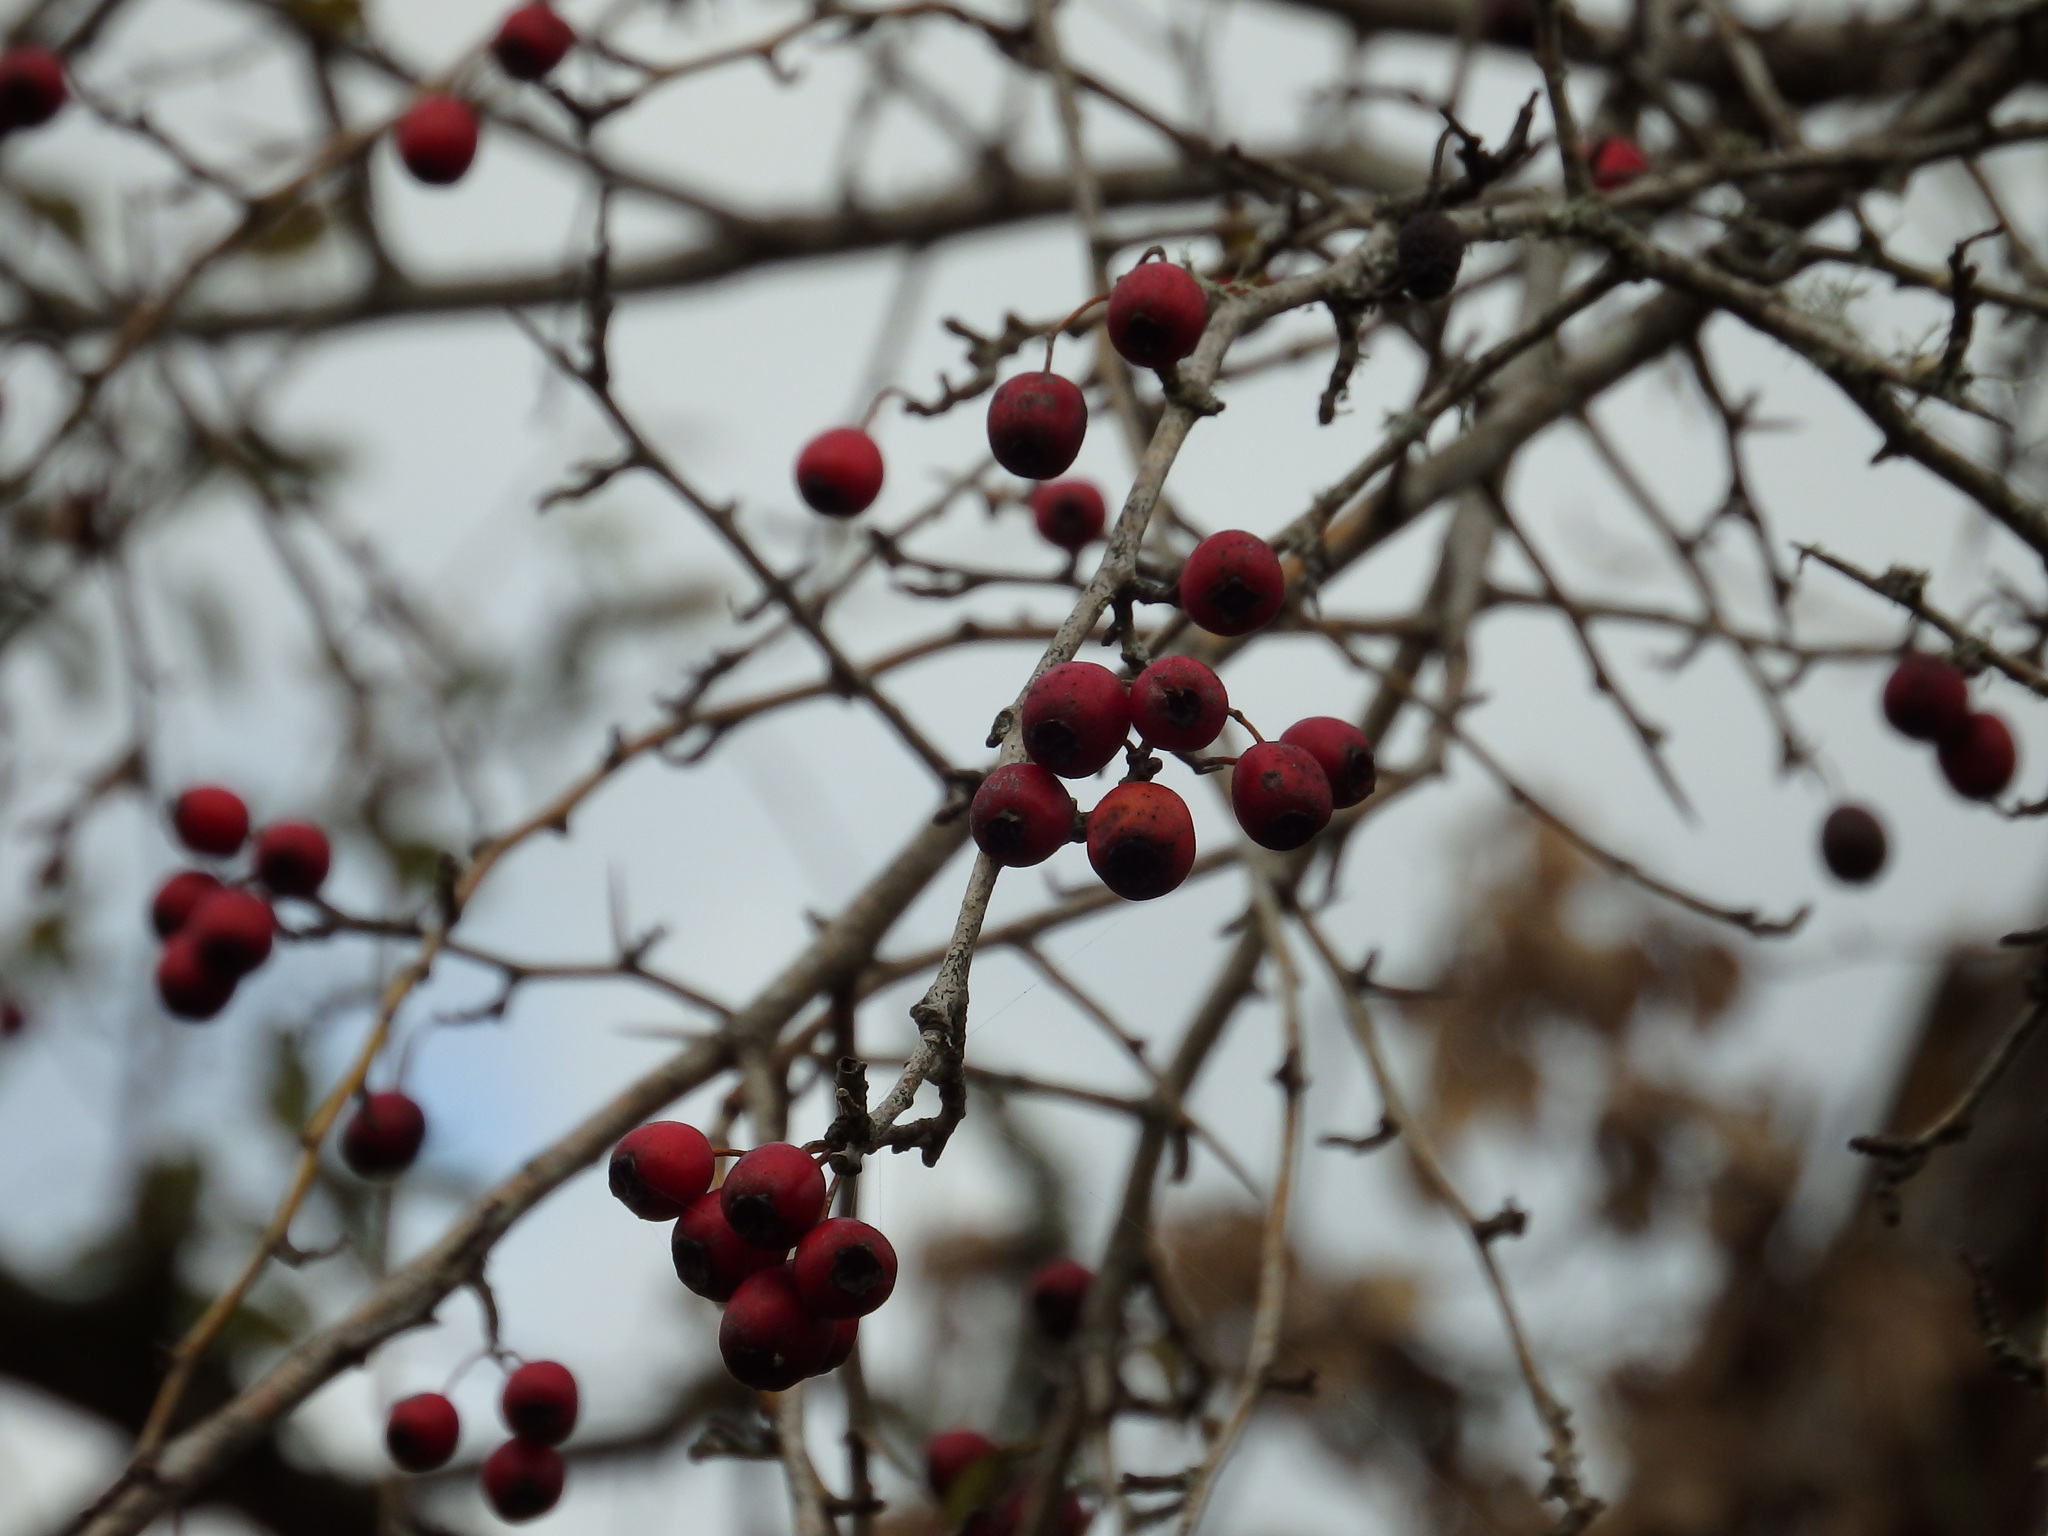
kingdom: Plantae
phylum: Tracheophyta
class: Magnoliopsida
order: Rosales
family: Rosaceae
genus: Crataegus
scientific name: Crataegus monogyna
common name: Hawthorn
